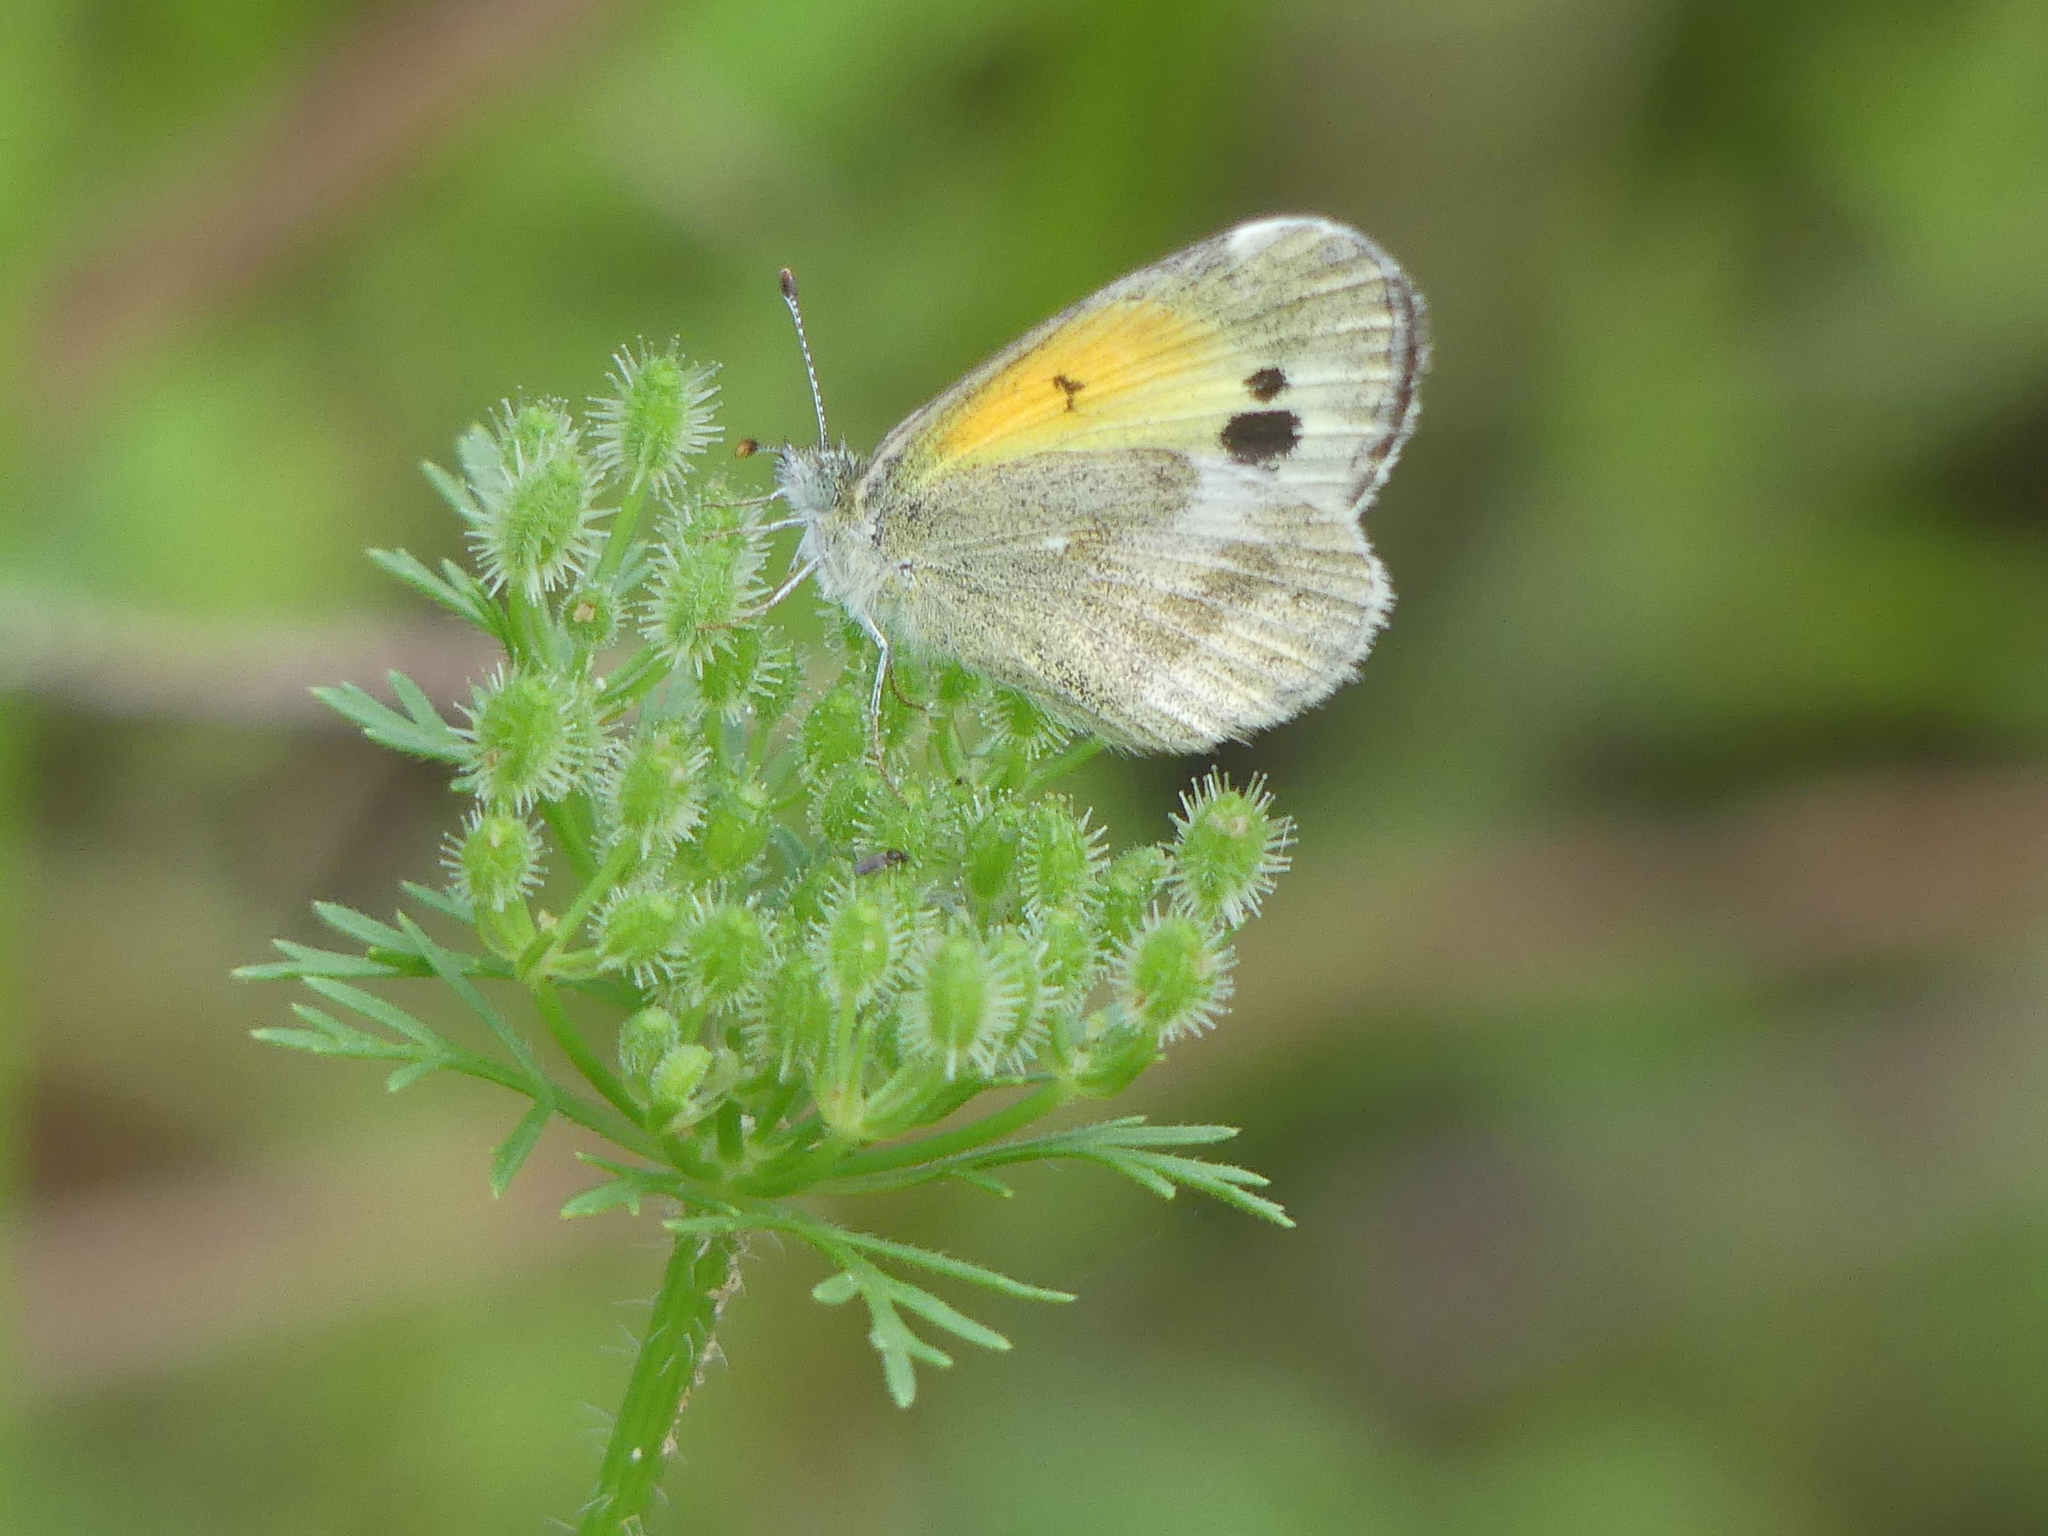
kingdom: Animalia
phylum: Arthropoda
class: Insecta
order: Lepidoptera
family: Pieridae
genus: Nathalis
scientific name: Nathalis iole
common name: Dainty sulphur
